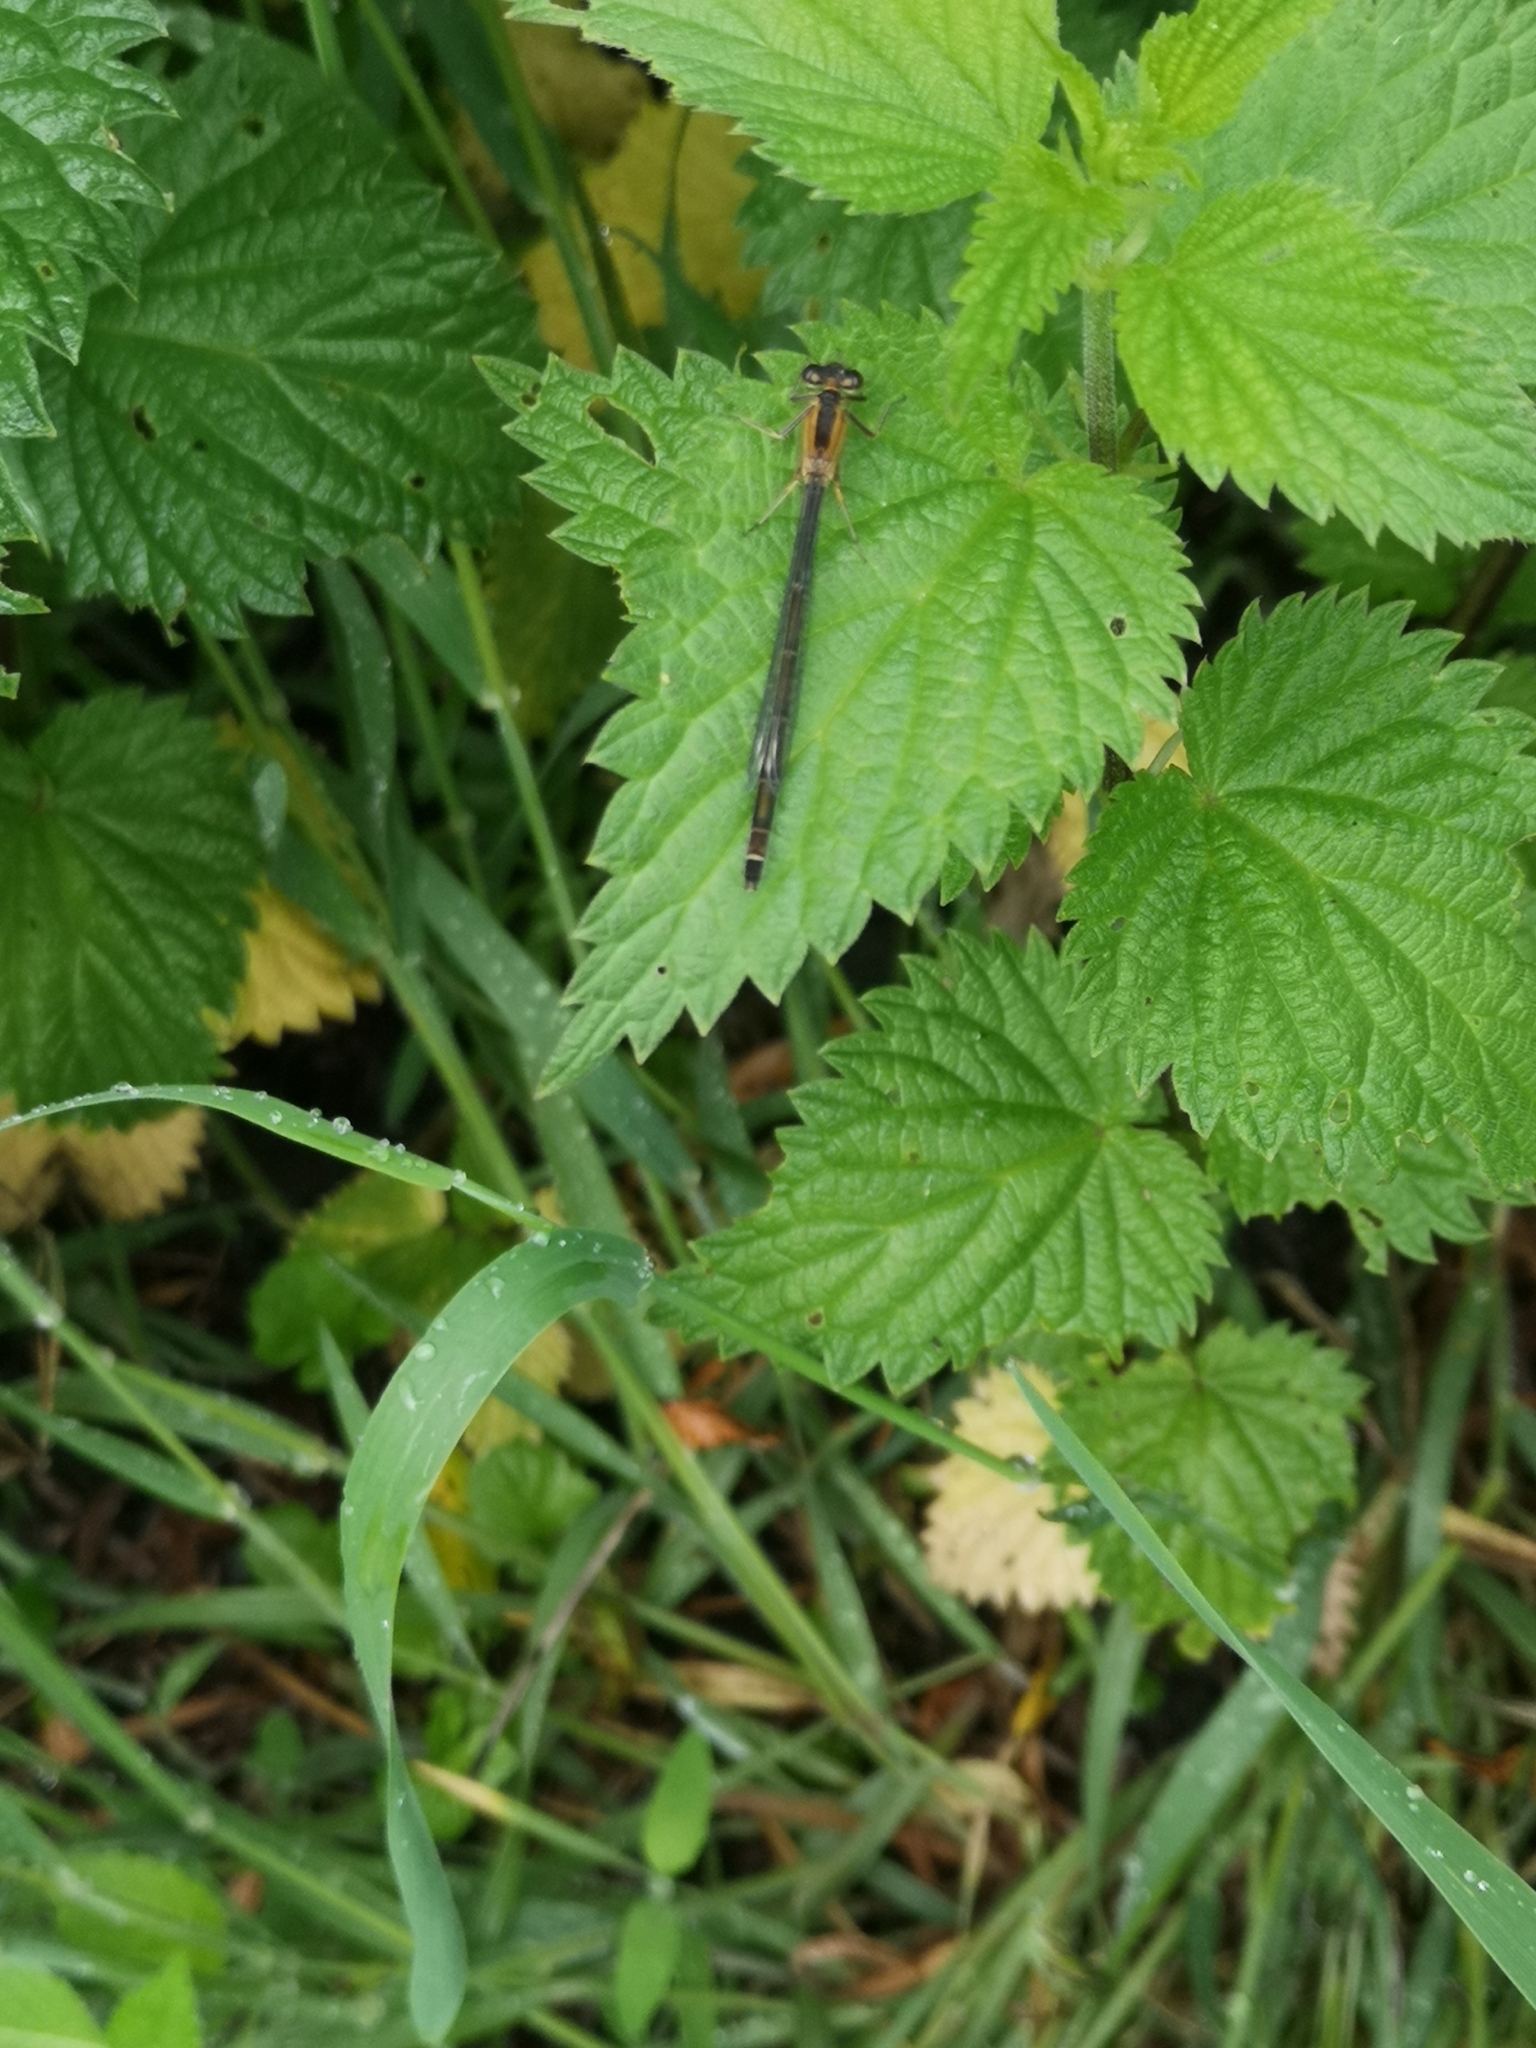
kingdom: Animalia
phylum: Arthropoda
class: Insecta
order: Odonata
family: Coenagrionidae
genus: Ischnura
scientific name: Ischnura elegans
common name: Blue-tailed damselfly
